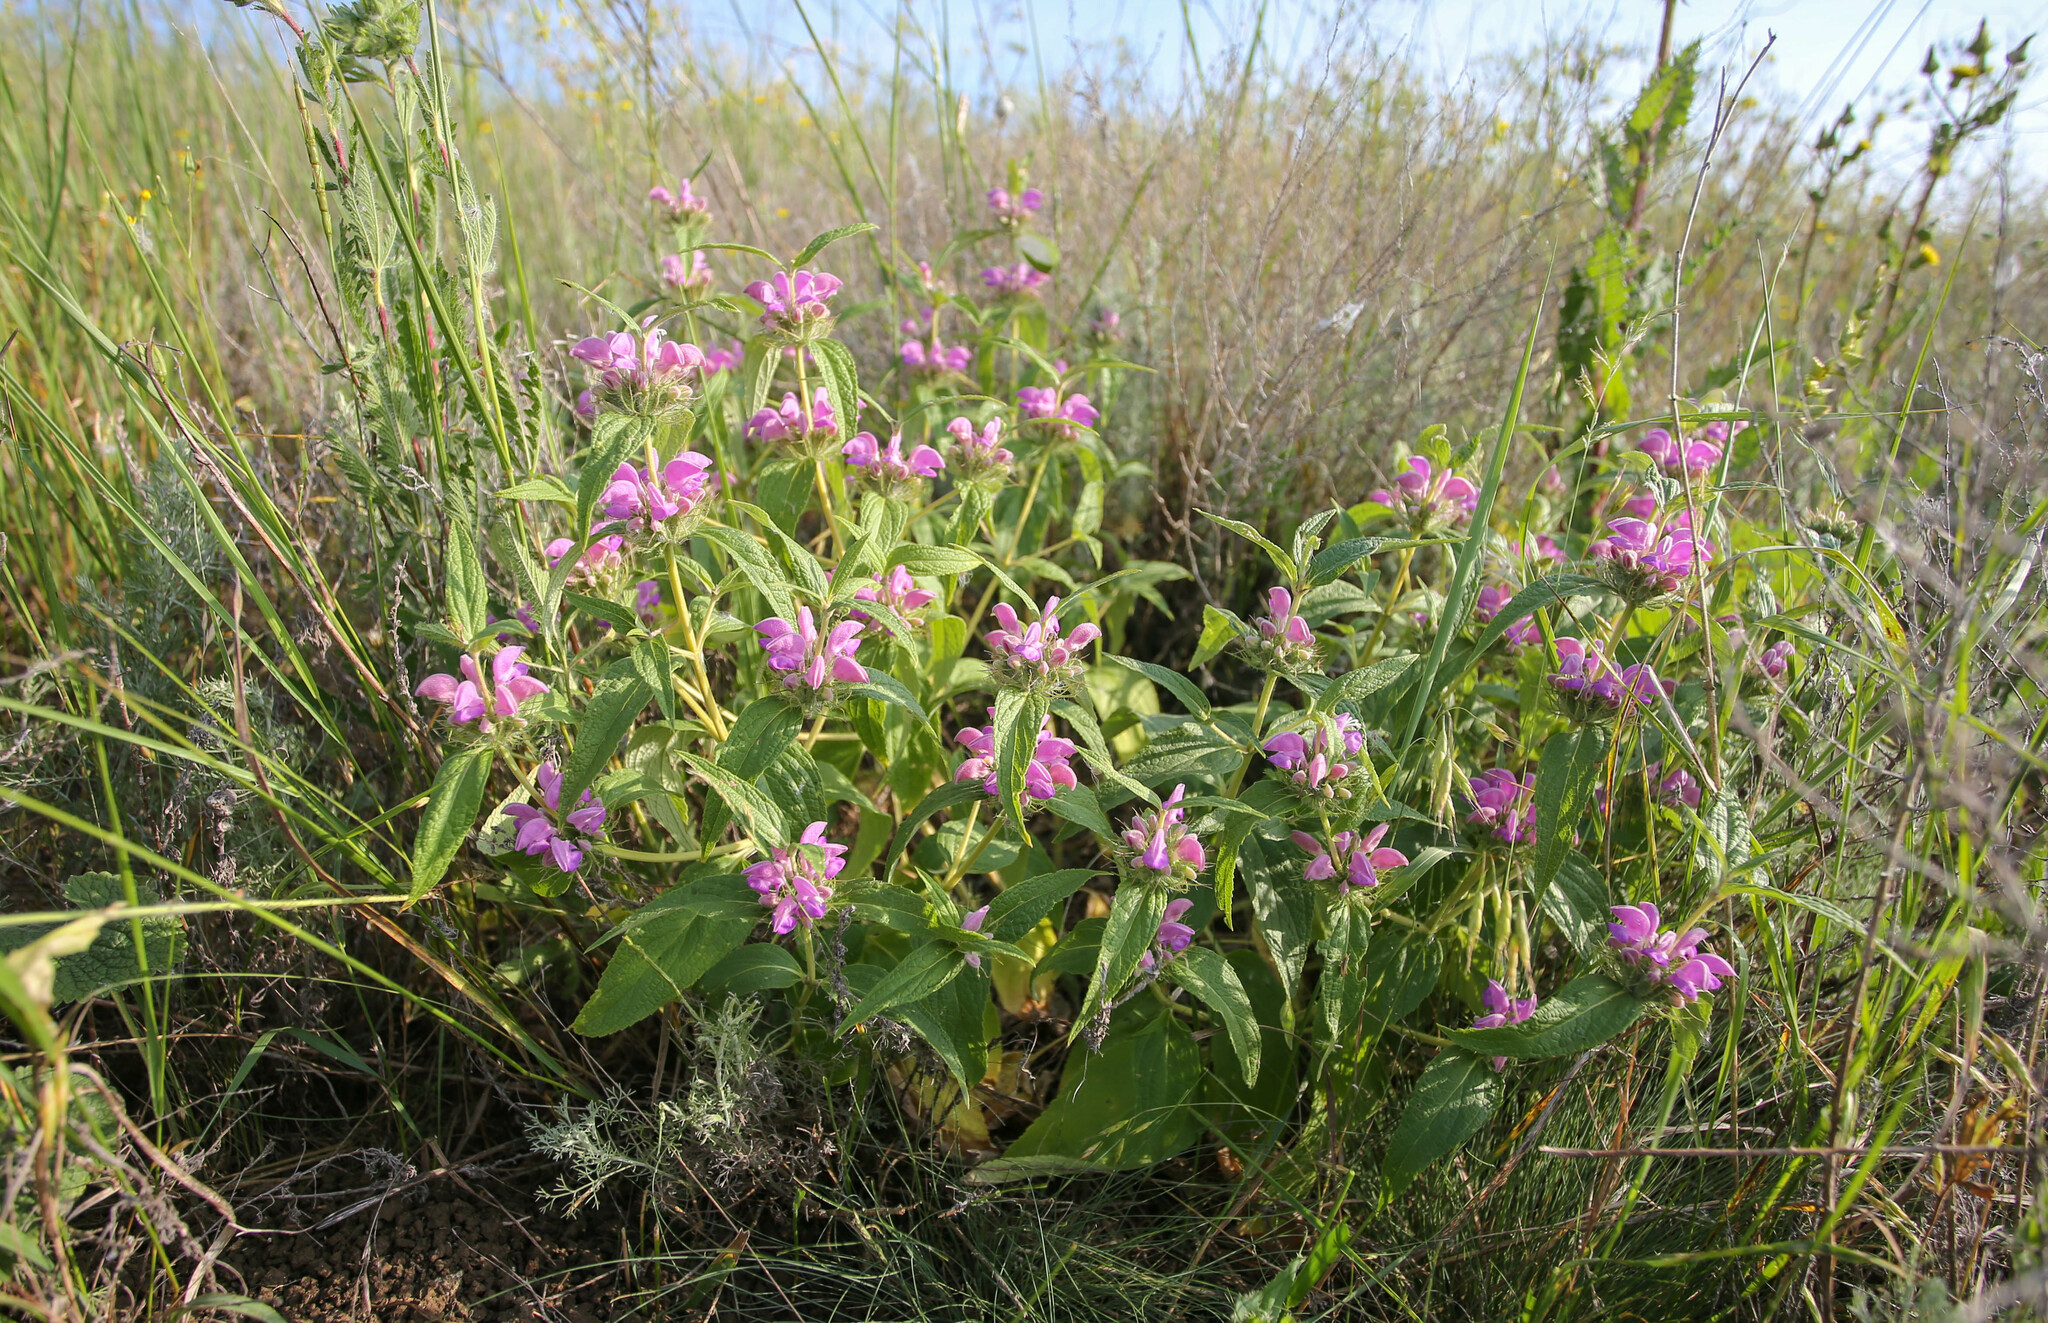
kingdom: Plantae
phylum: Tracheophyta
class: Magnoliopsida
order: Lamiales
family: Lamiaceae
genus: Phlomis
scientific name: Phlomis herba-venti
